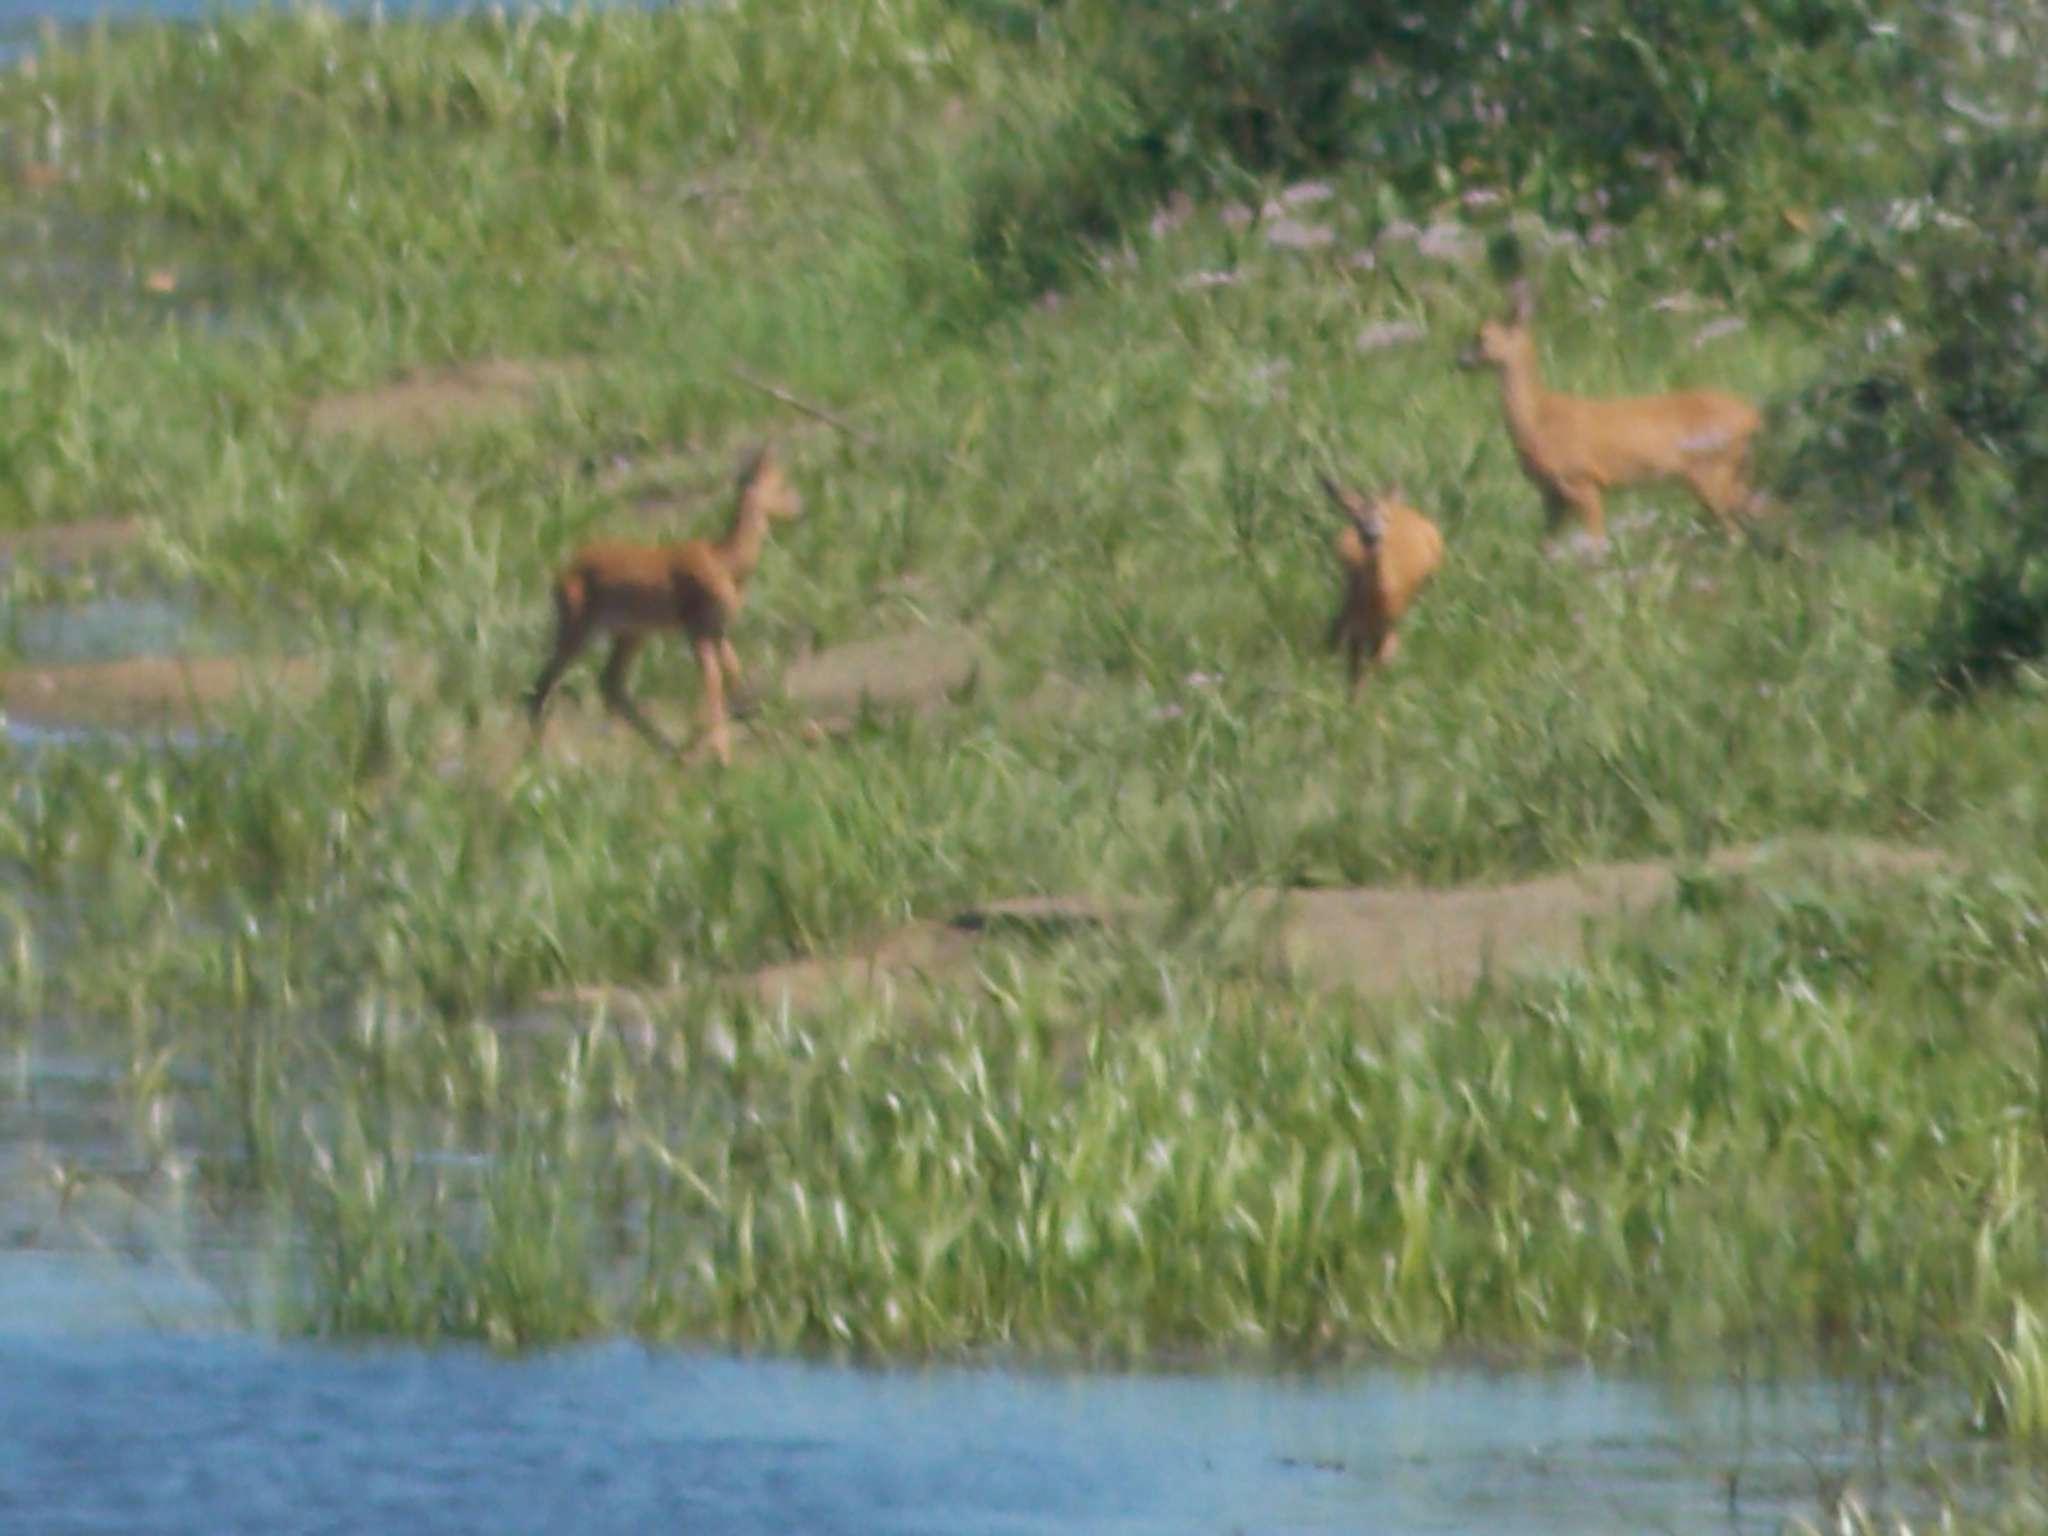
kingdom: Animalia
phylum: Chordata
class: Mammalia
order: Artiodactyla
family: Cervidae
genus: Capreolus
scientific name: Capreolus capreolus
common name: Western roe deer
